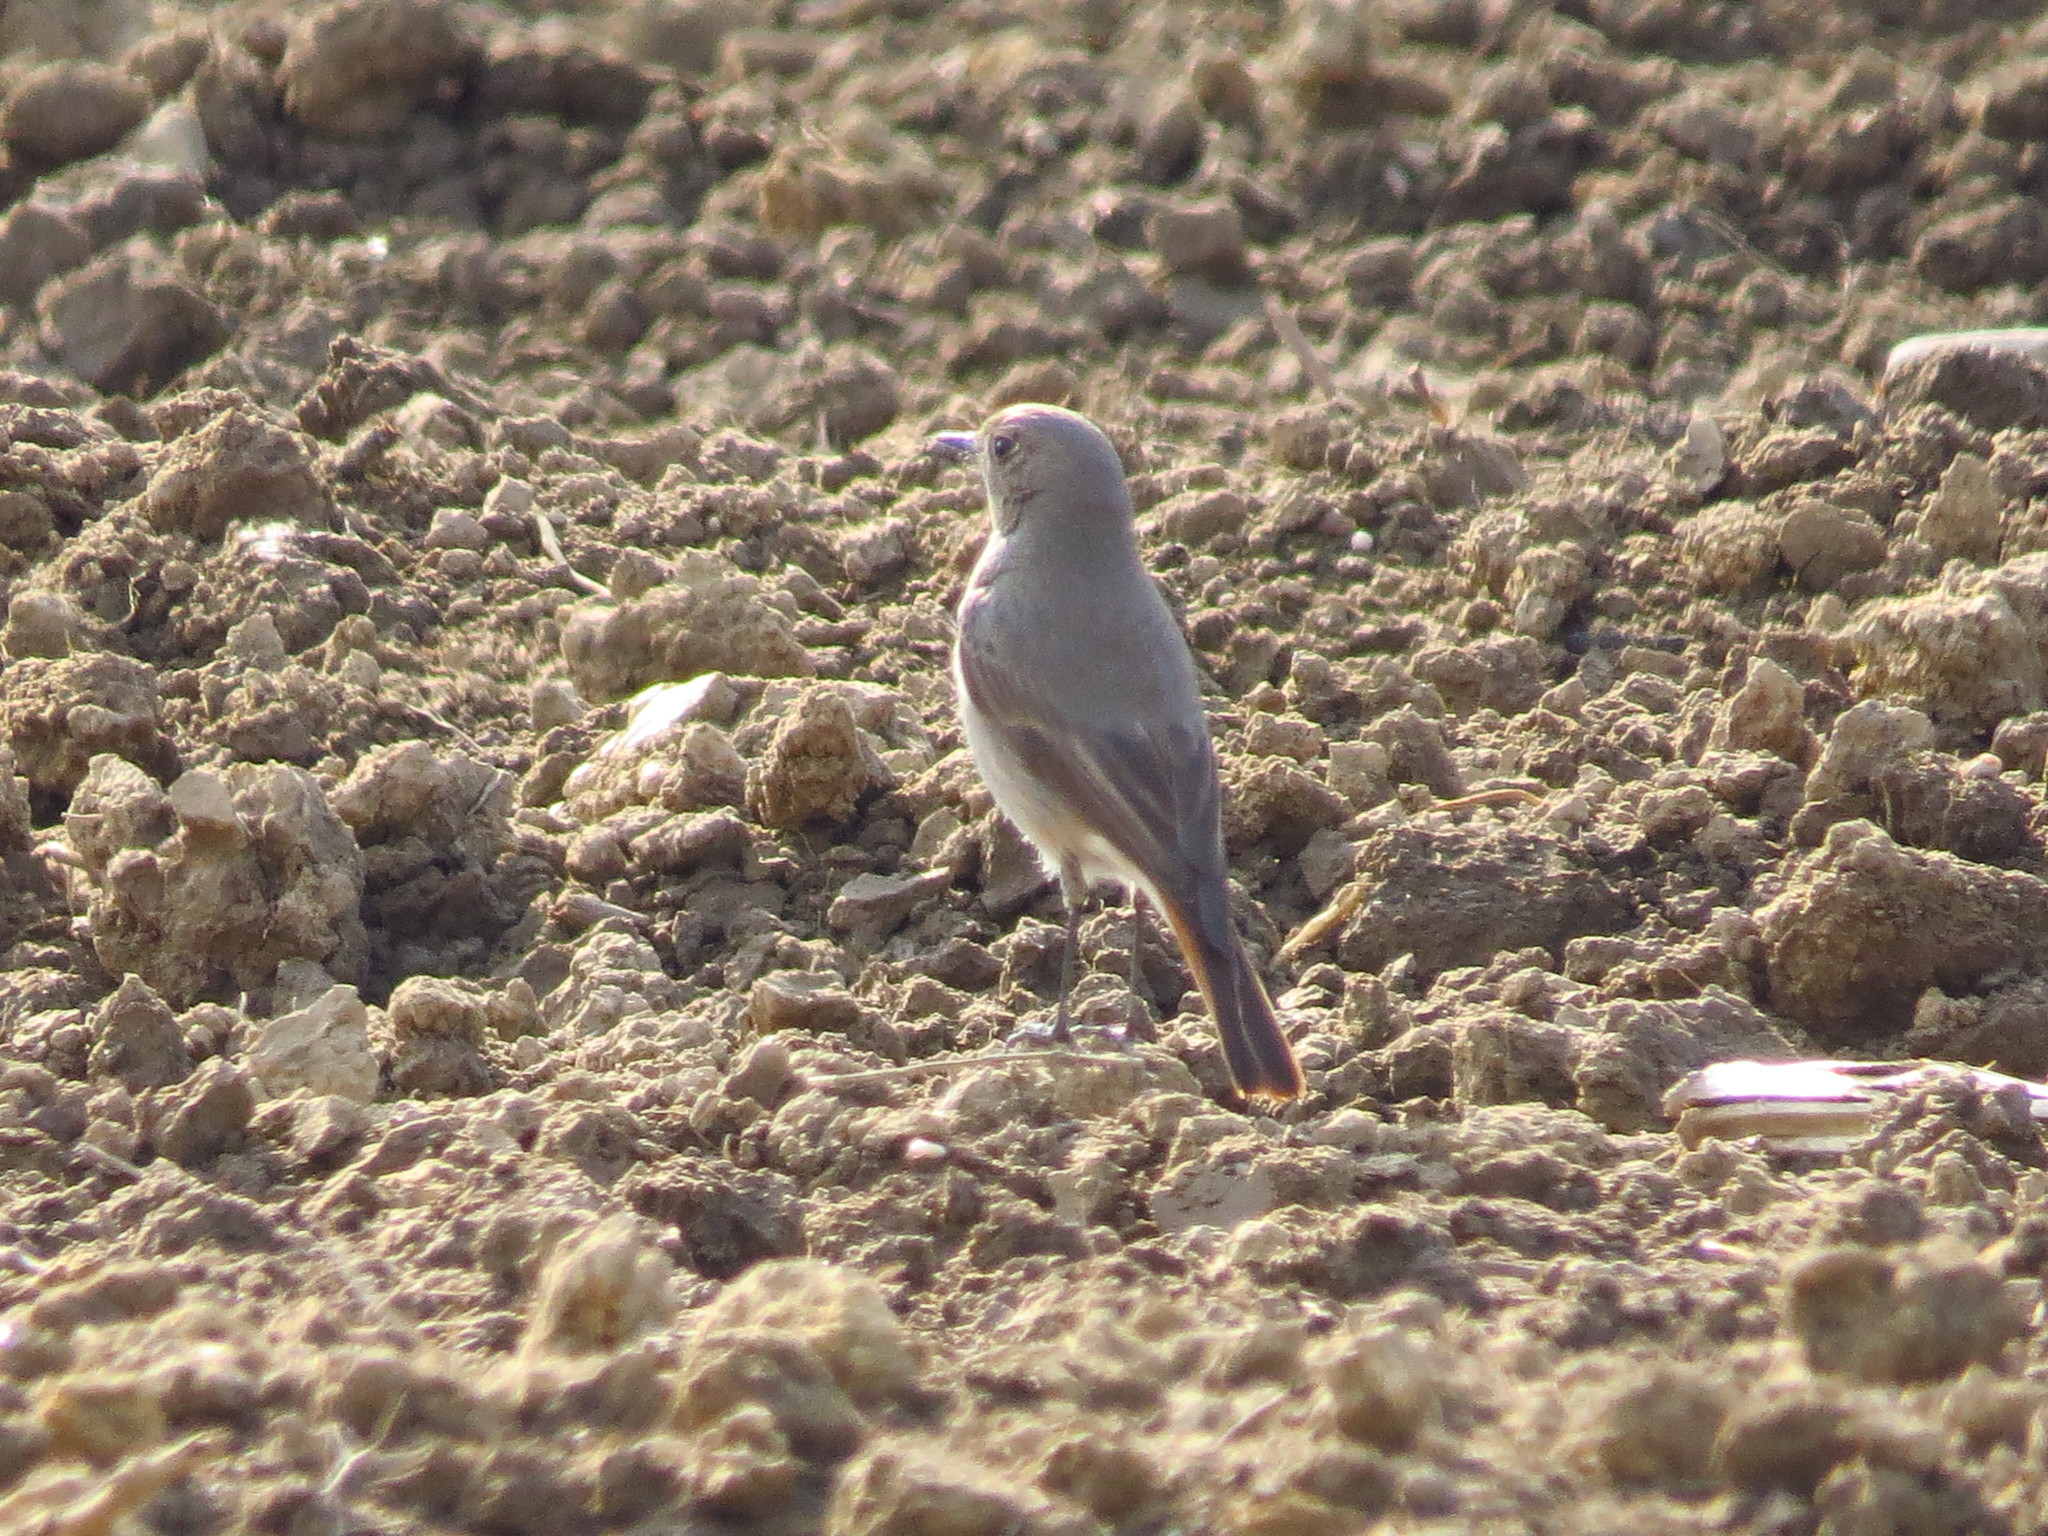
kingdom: Animalia
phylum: Chordata
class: Aves
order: Passeriformes
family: Muscicapidae
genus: Phoenicurus
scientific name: Phoenicurus ochruros
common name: Black redstart
